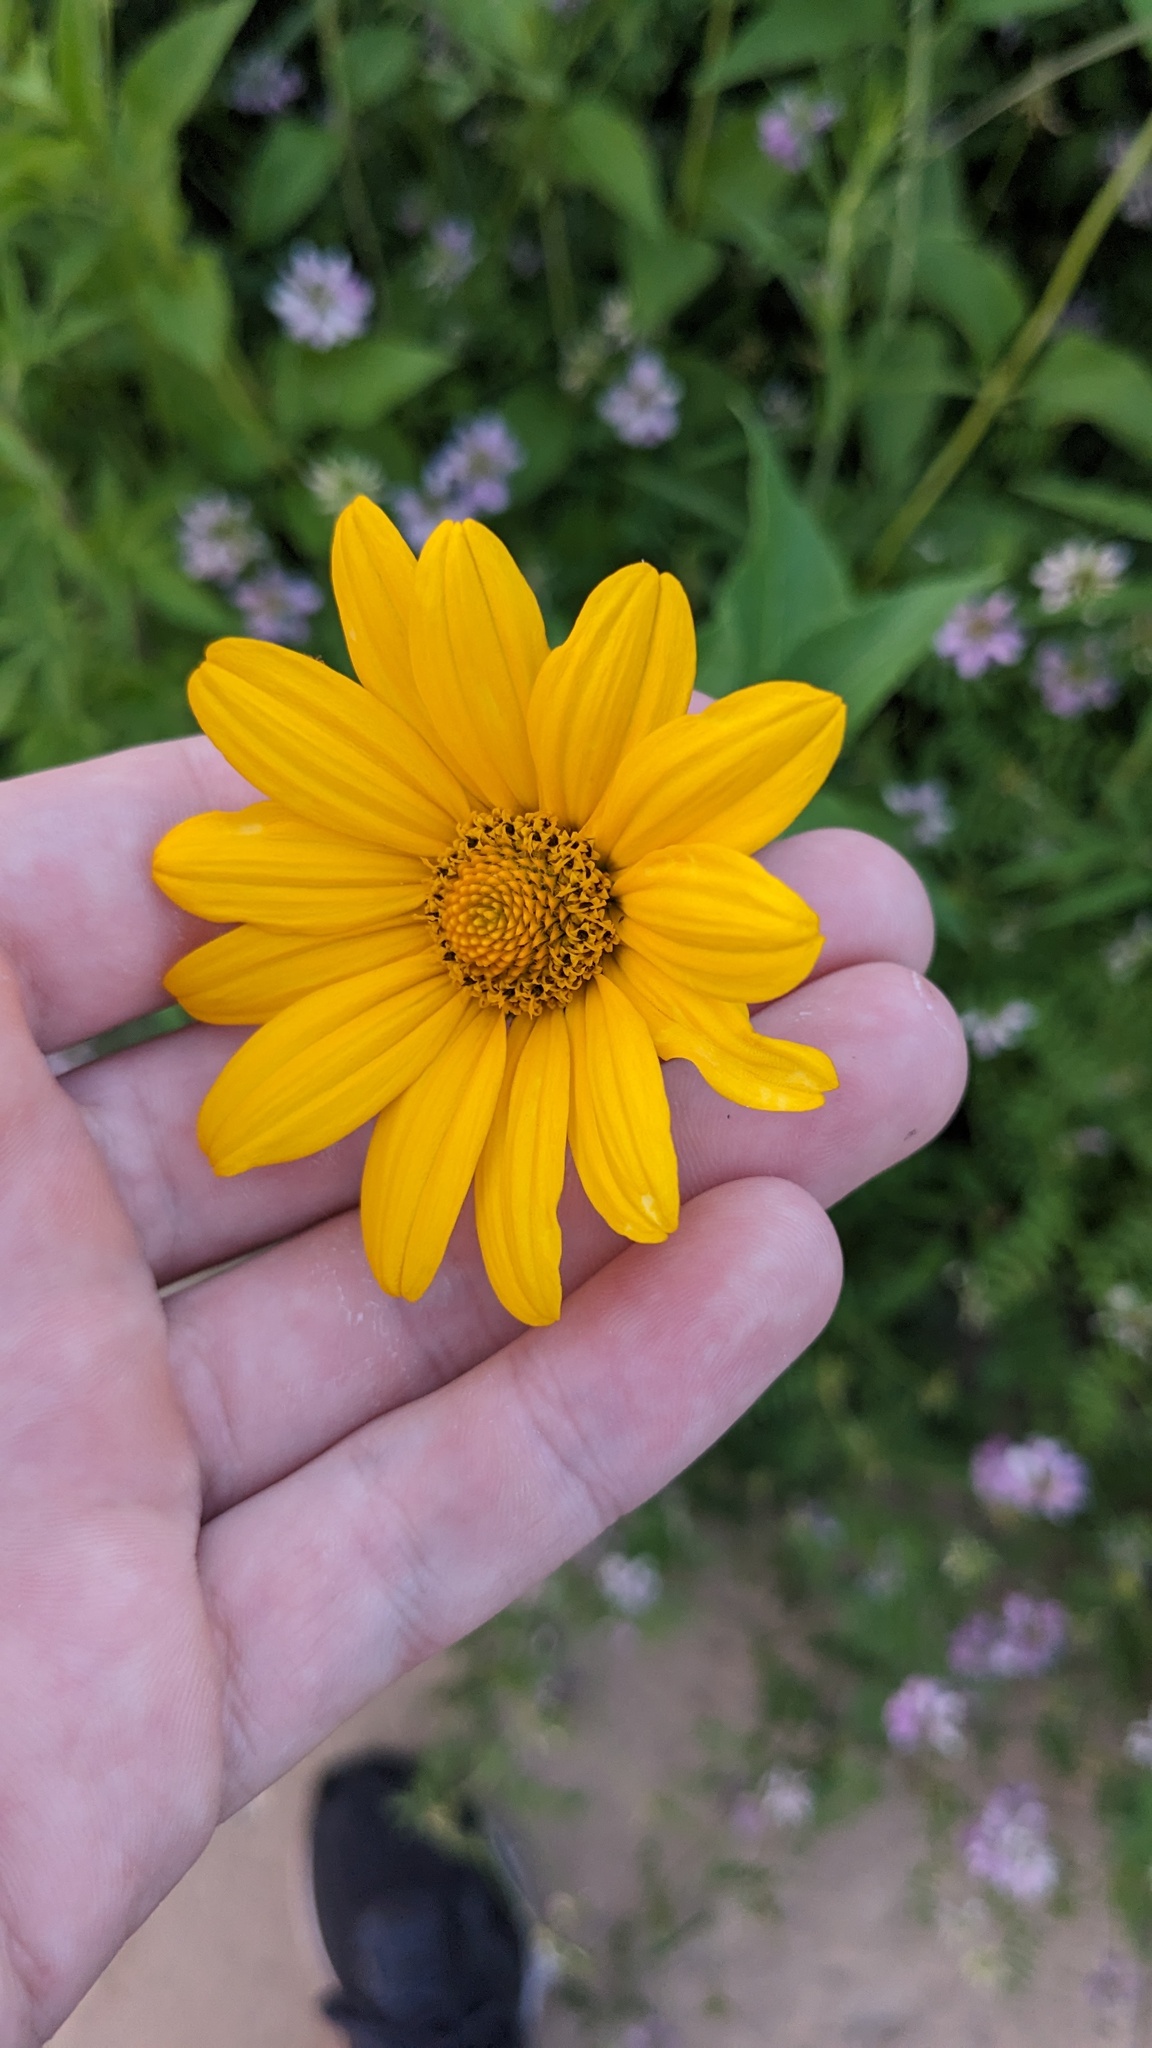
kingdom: Plantae
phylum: Tracheophyta
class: Magnoliopsida
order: Asterales
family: Asteraceae
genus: Heliopsis
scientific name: Heliopsis helianthoides
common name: False sunflower
